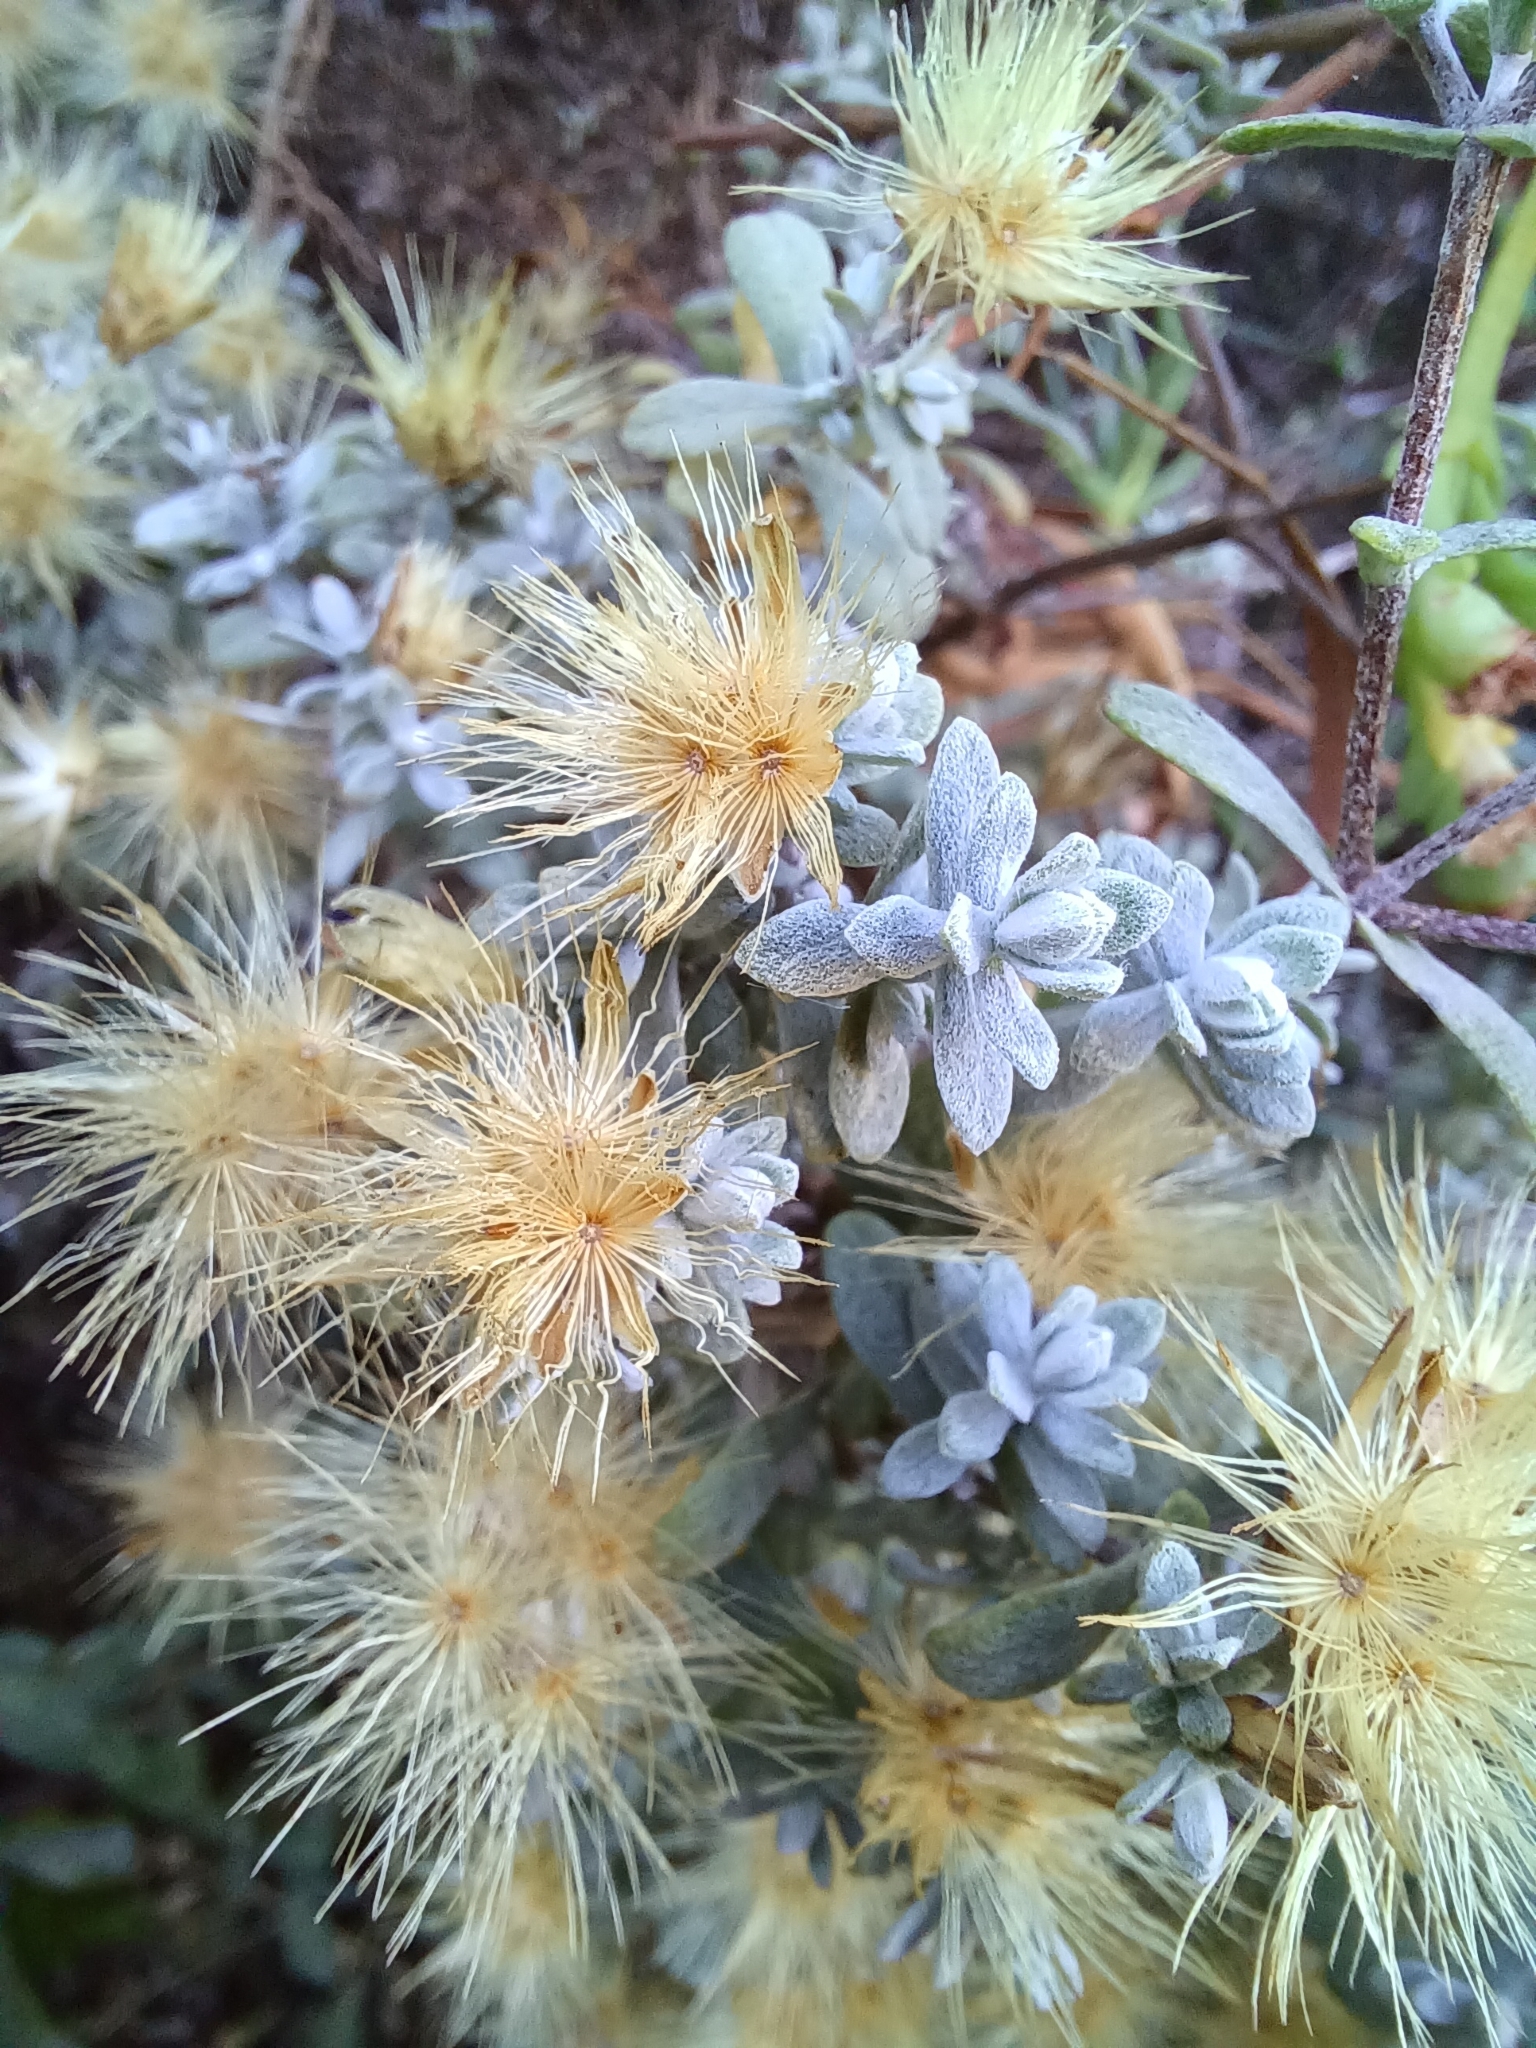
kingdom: Plantae
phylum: Tracheophyta
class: Magnoliopsida
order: Asterales
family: Asteraceae
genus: Pteronia
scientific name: Pteronia incana
